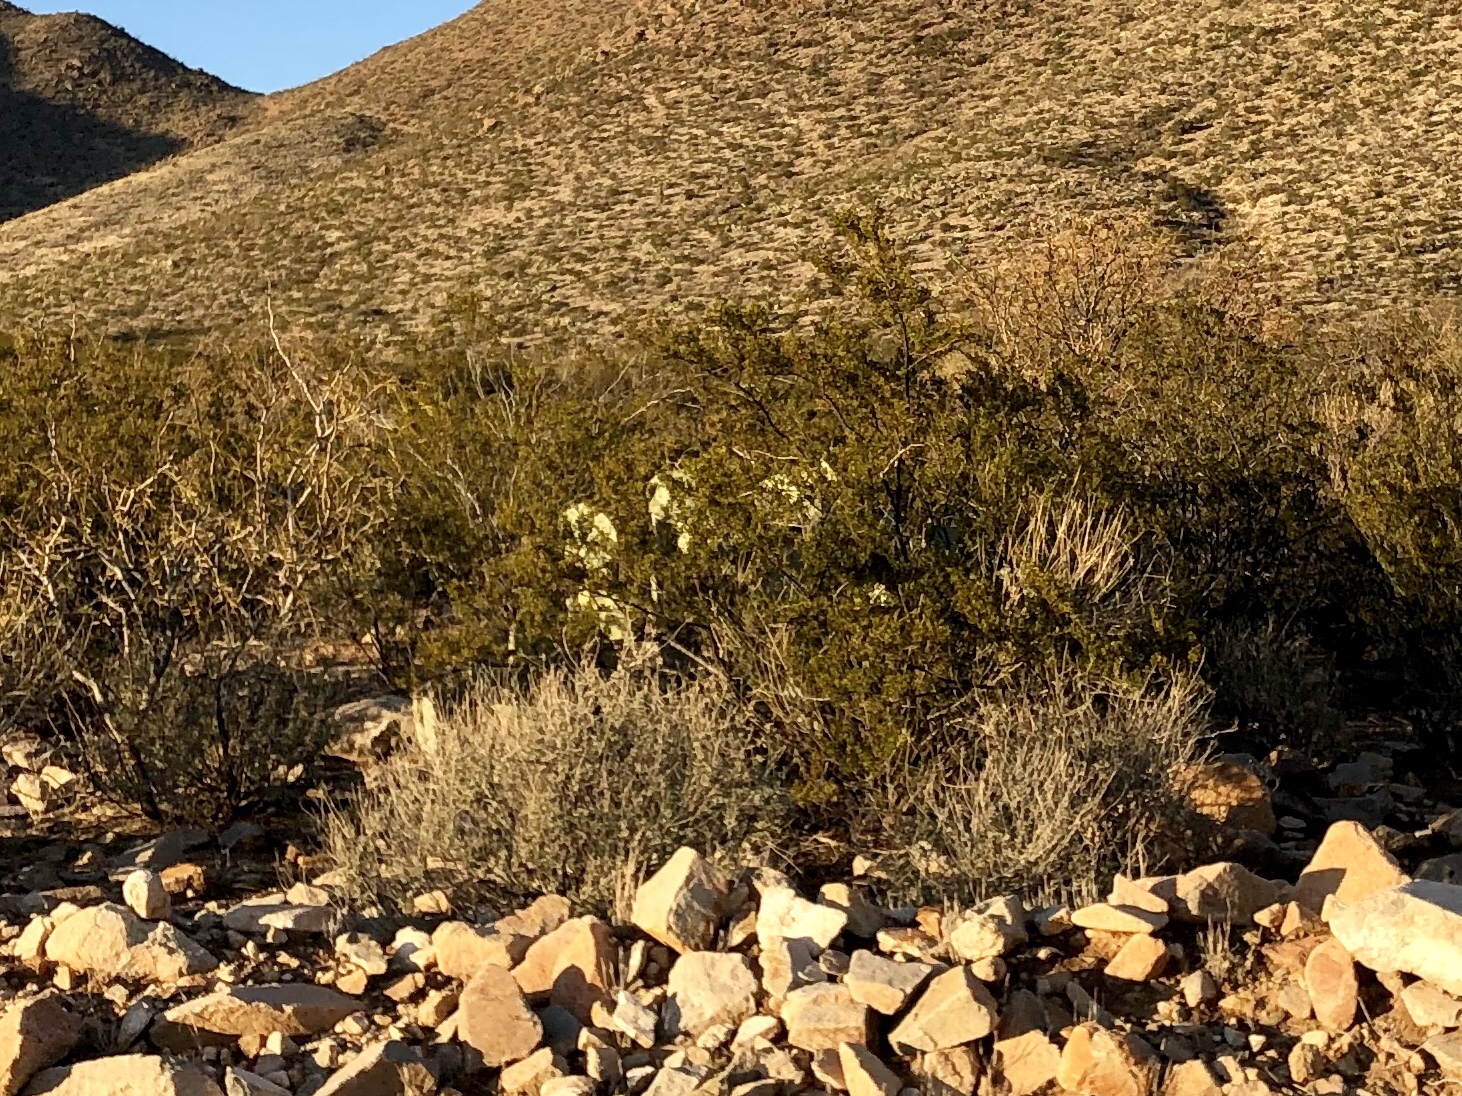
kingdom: Plantae
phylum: Tracheophyta
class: Magnoliopsida
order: Zygophyllales
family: Zygophyllaceae
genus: Larrea
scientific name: Larrea tridentata
